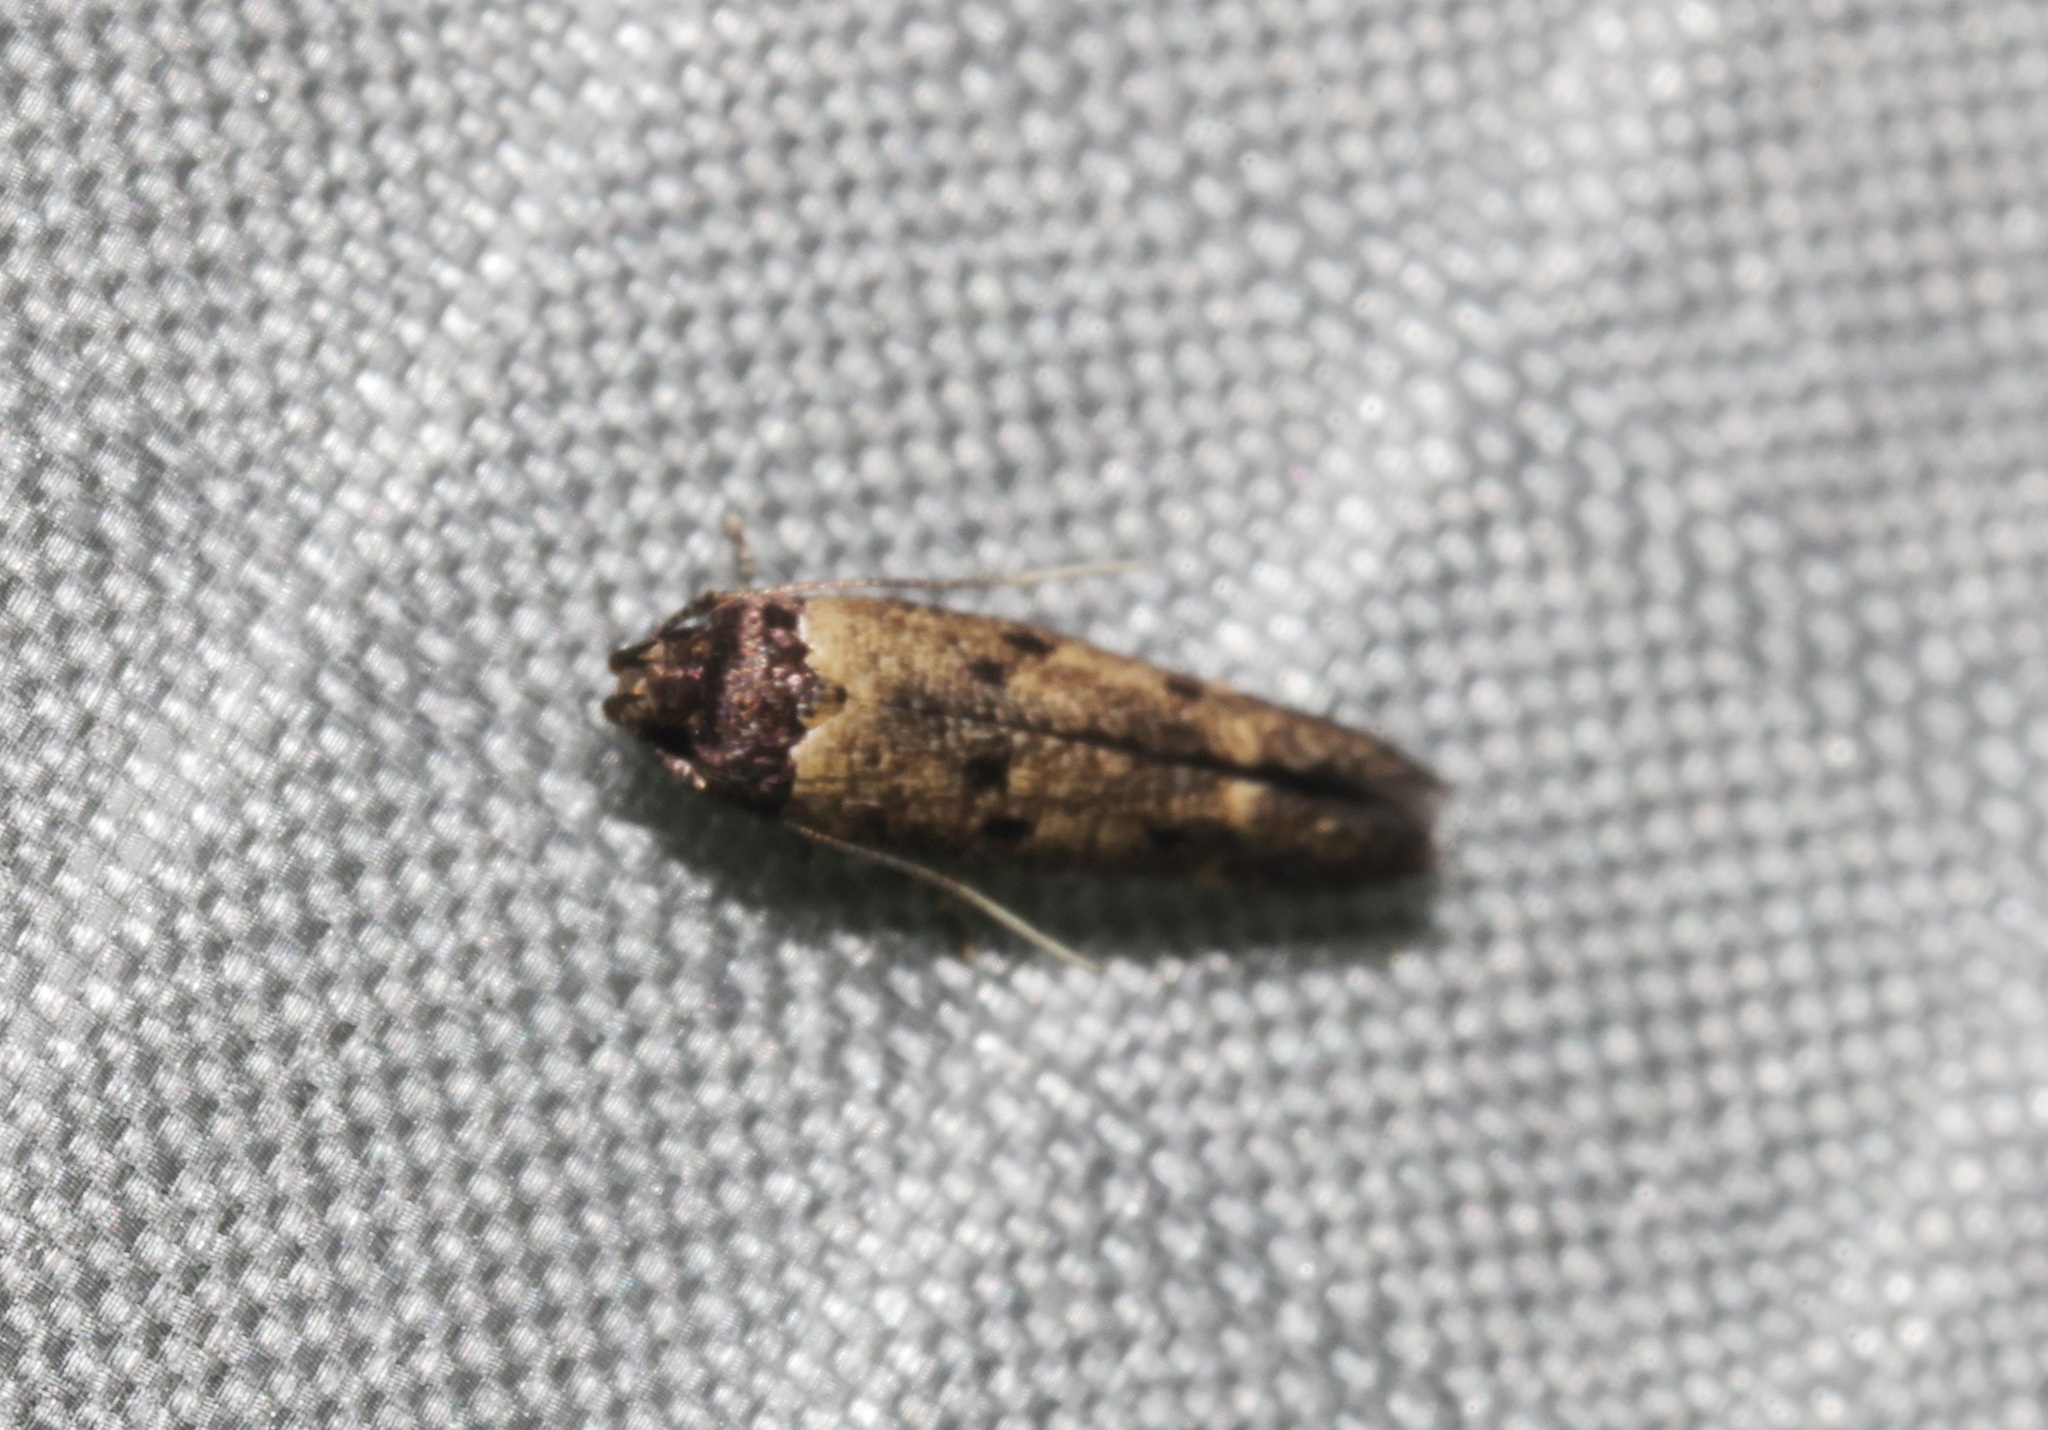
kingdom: Animalia
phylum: Arthropoda
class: Insecta
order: Lepidoptera
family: Cosmopterigidae
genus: Gisilia
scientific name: Gisilia thoracista
